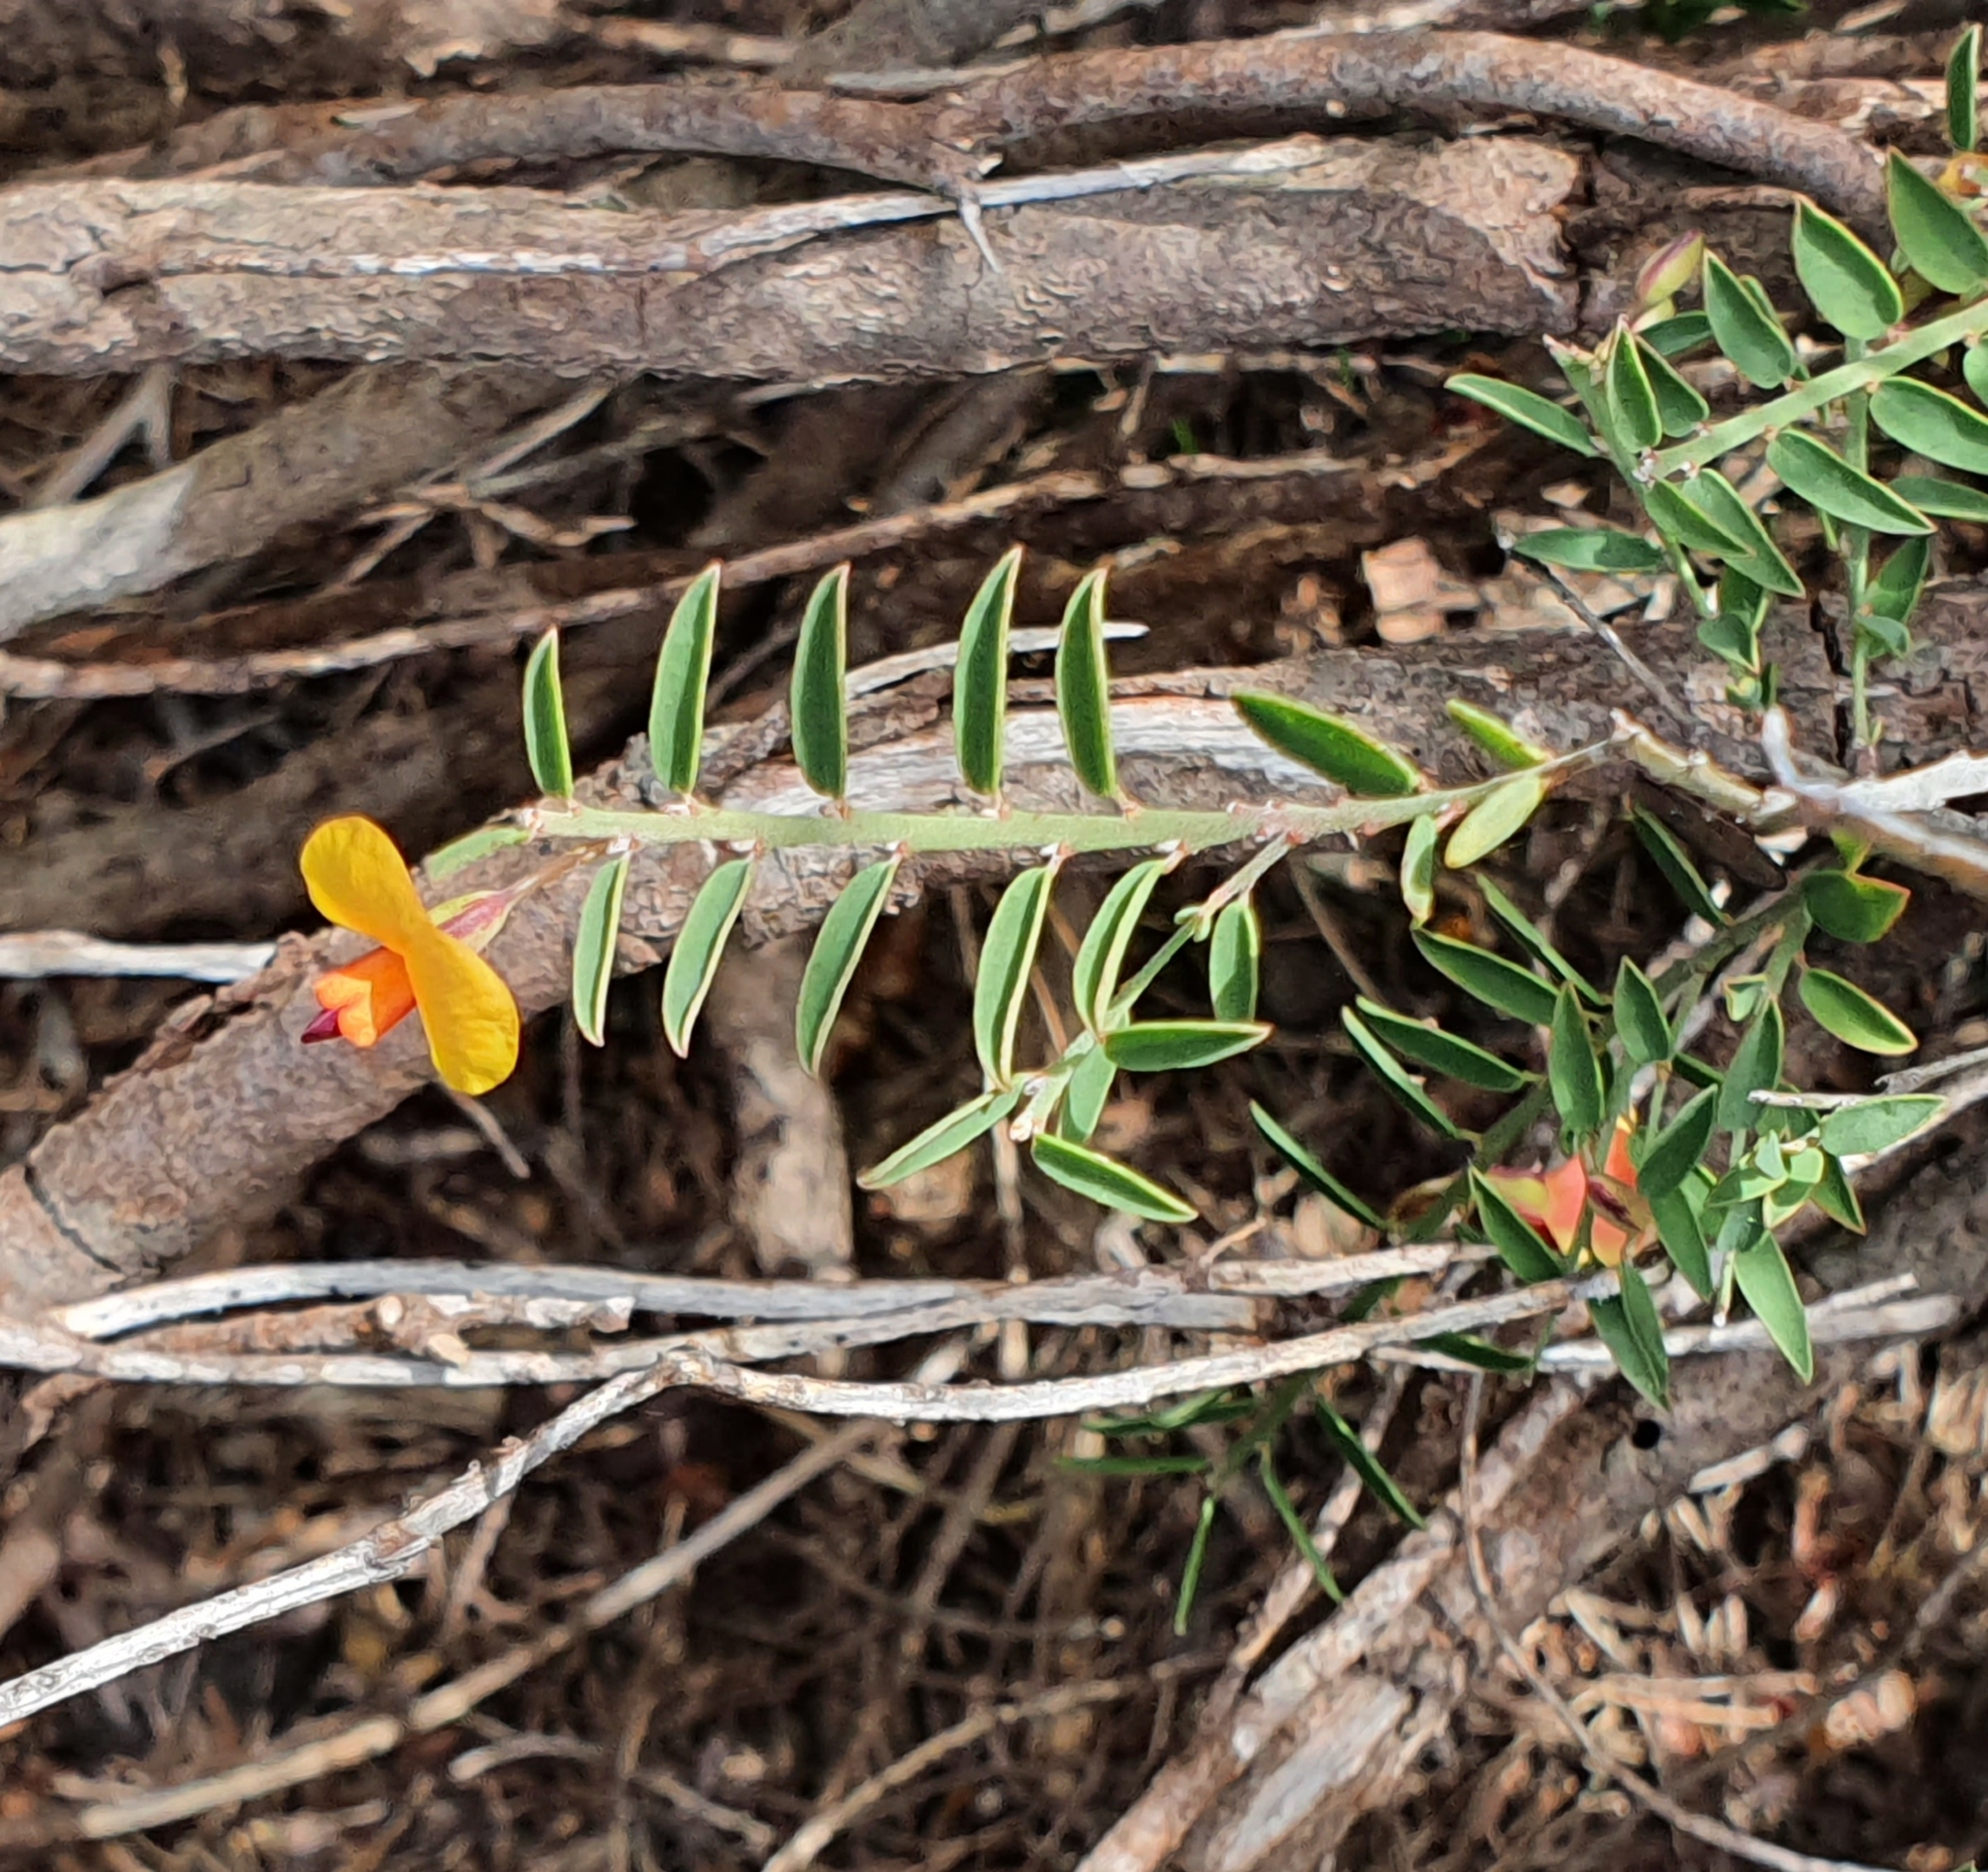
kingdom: Plantae
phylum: Tracheophyta
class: Magnoliopsida
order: Fabales
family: Fabaceae
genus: Bossiaea
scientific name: Bossiaea heterophylla
